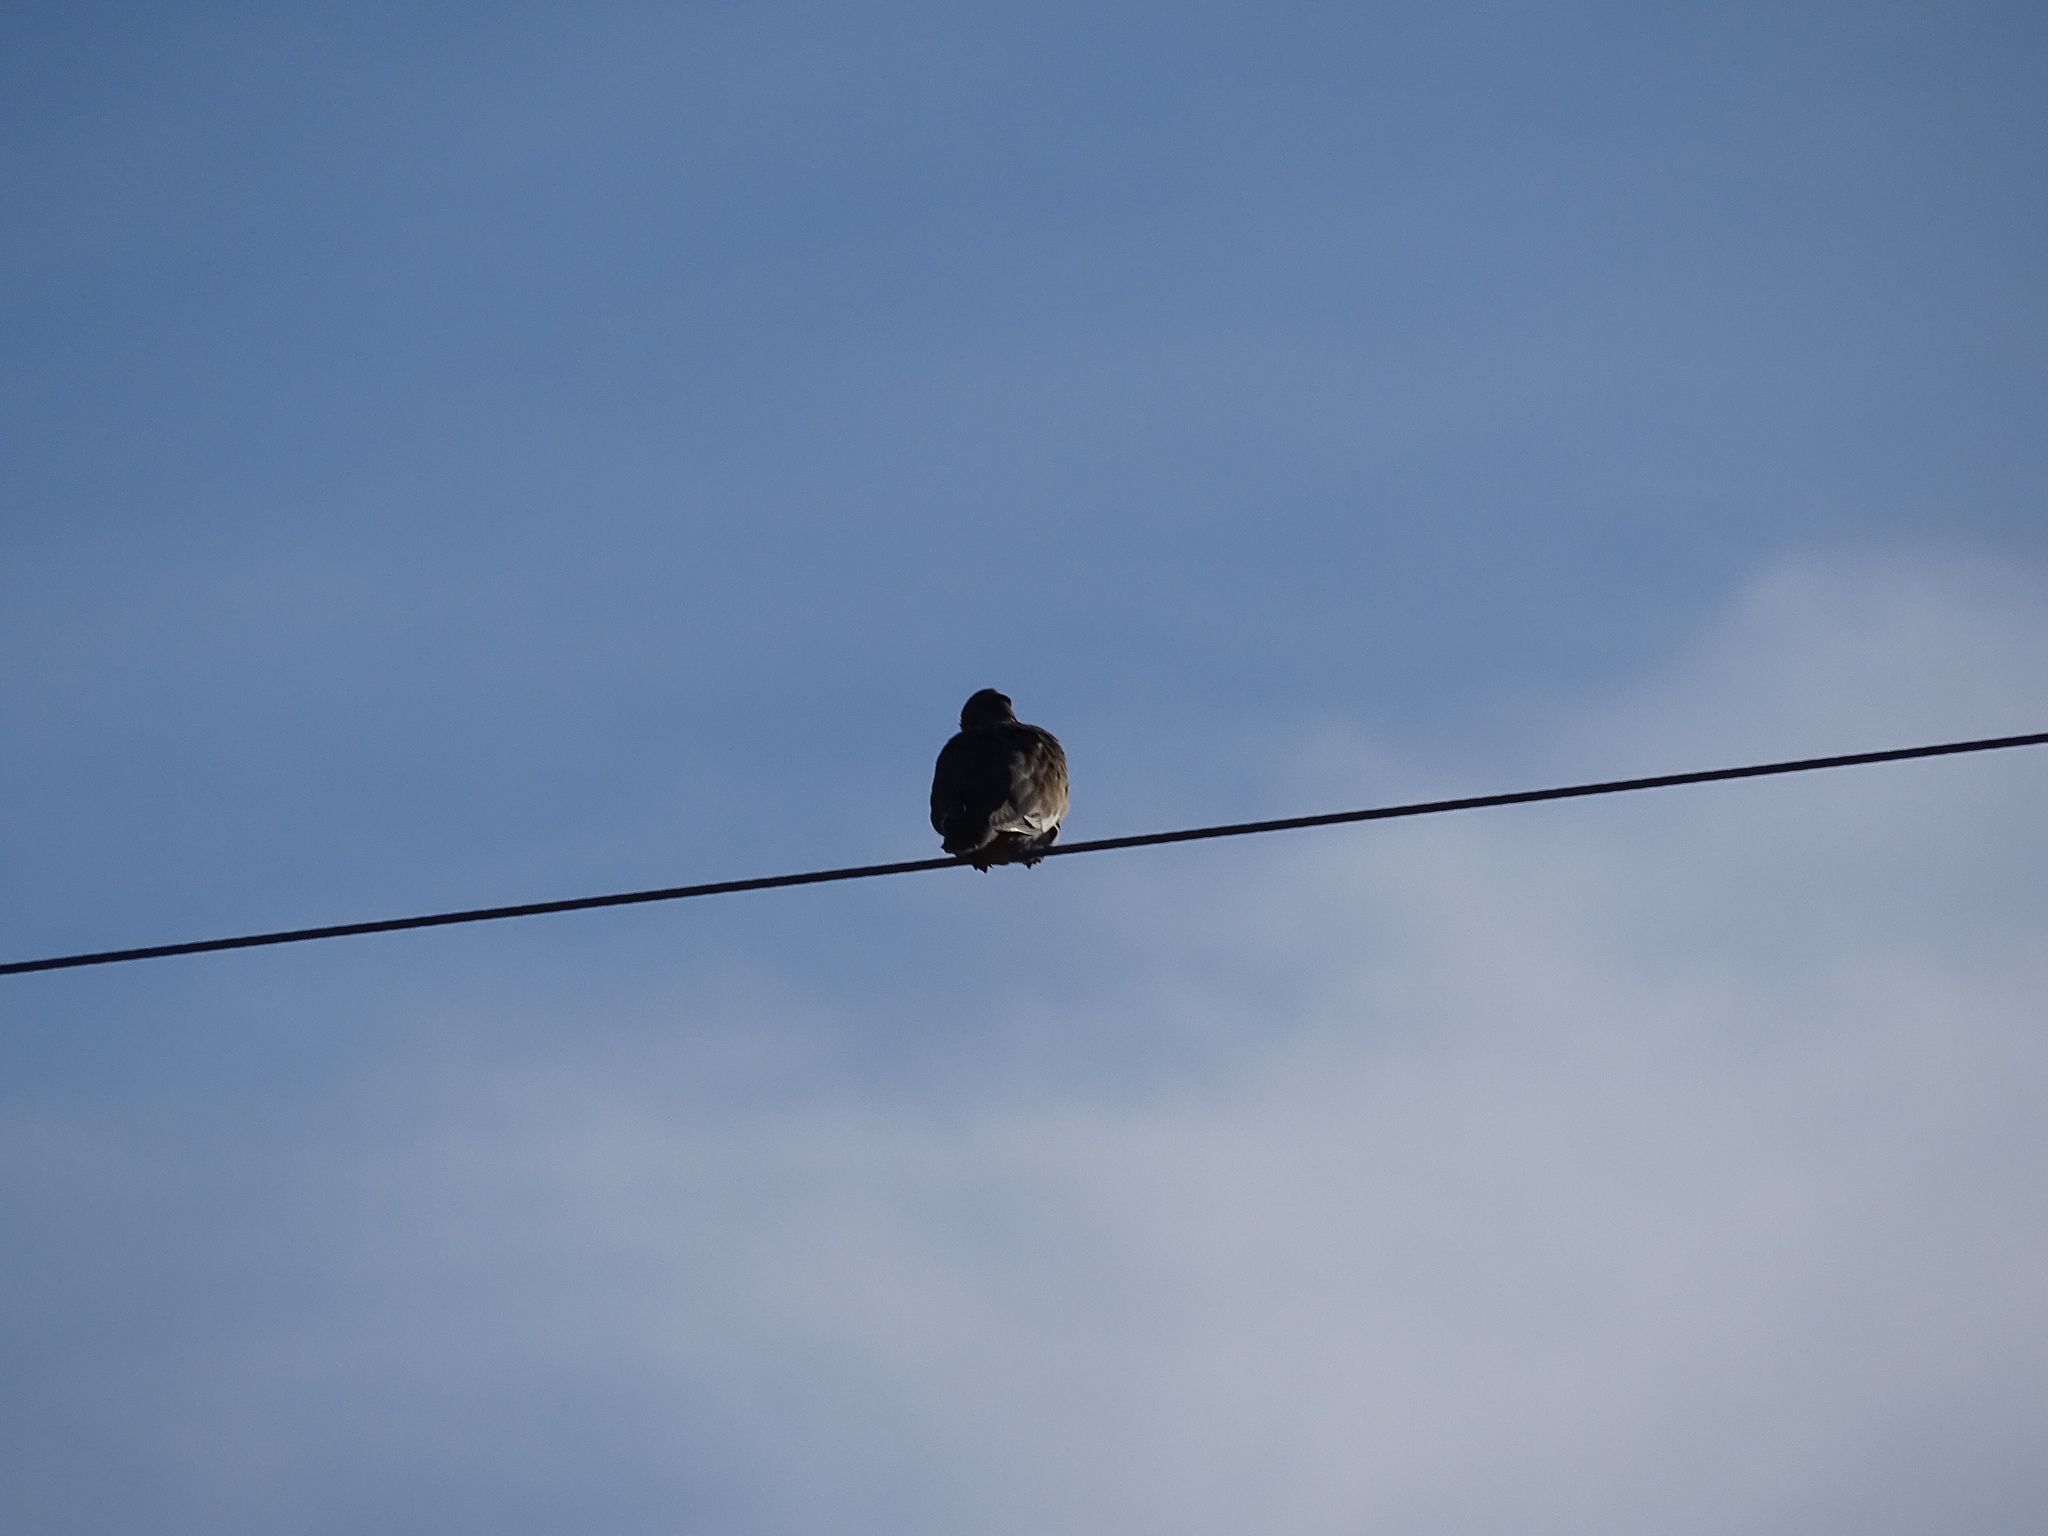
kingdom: Animalia
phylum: Chordata
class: Aves
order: Columbiformes
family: Columbidae
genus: Zenaida
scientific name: Zenaida asiatica
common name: White-winged dove
